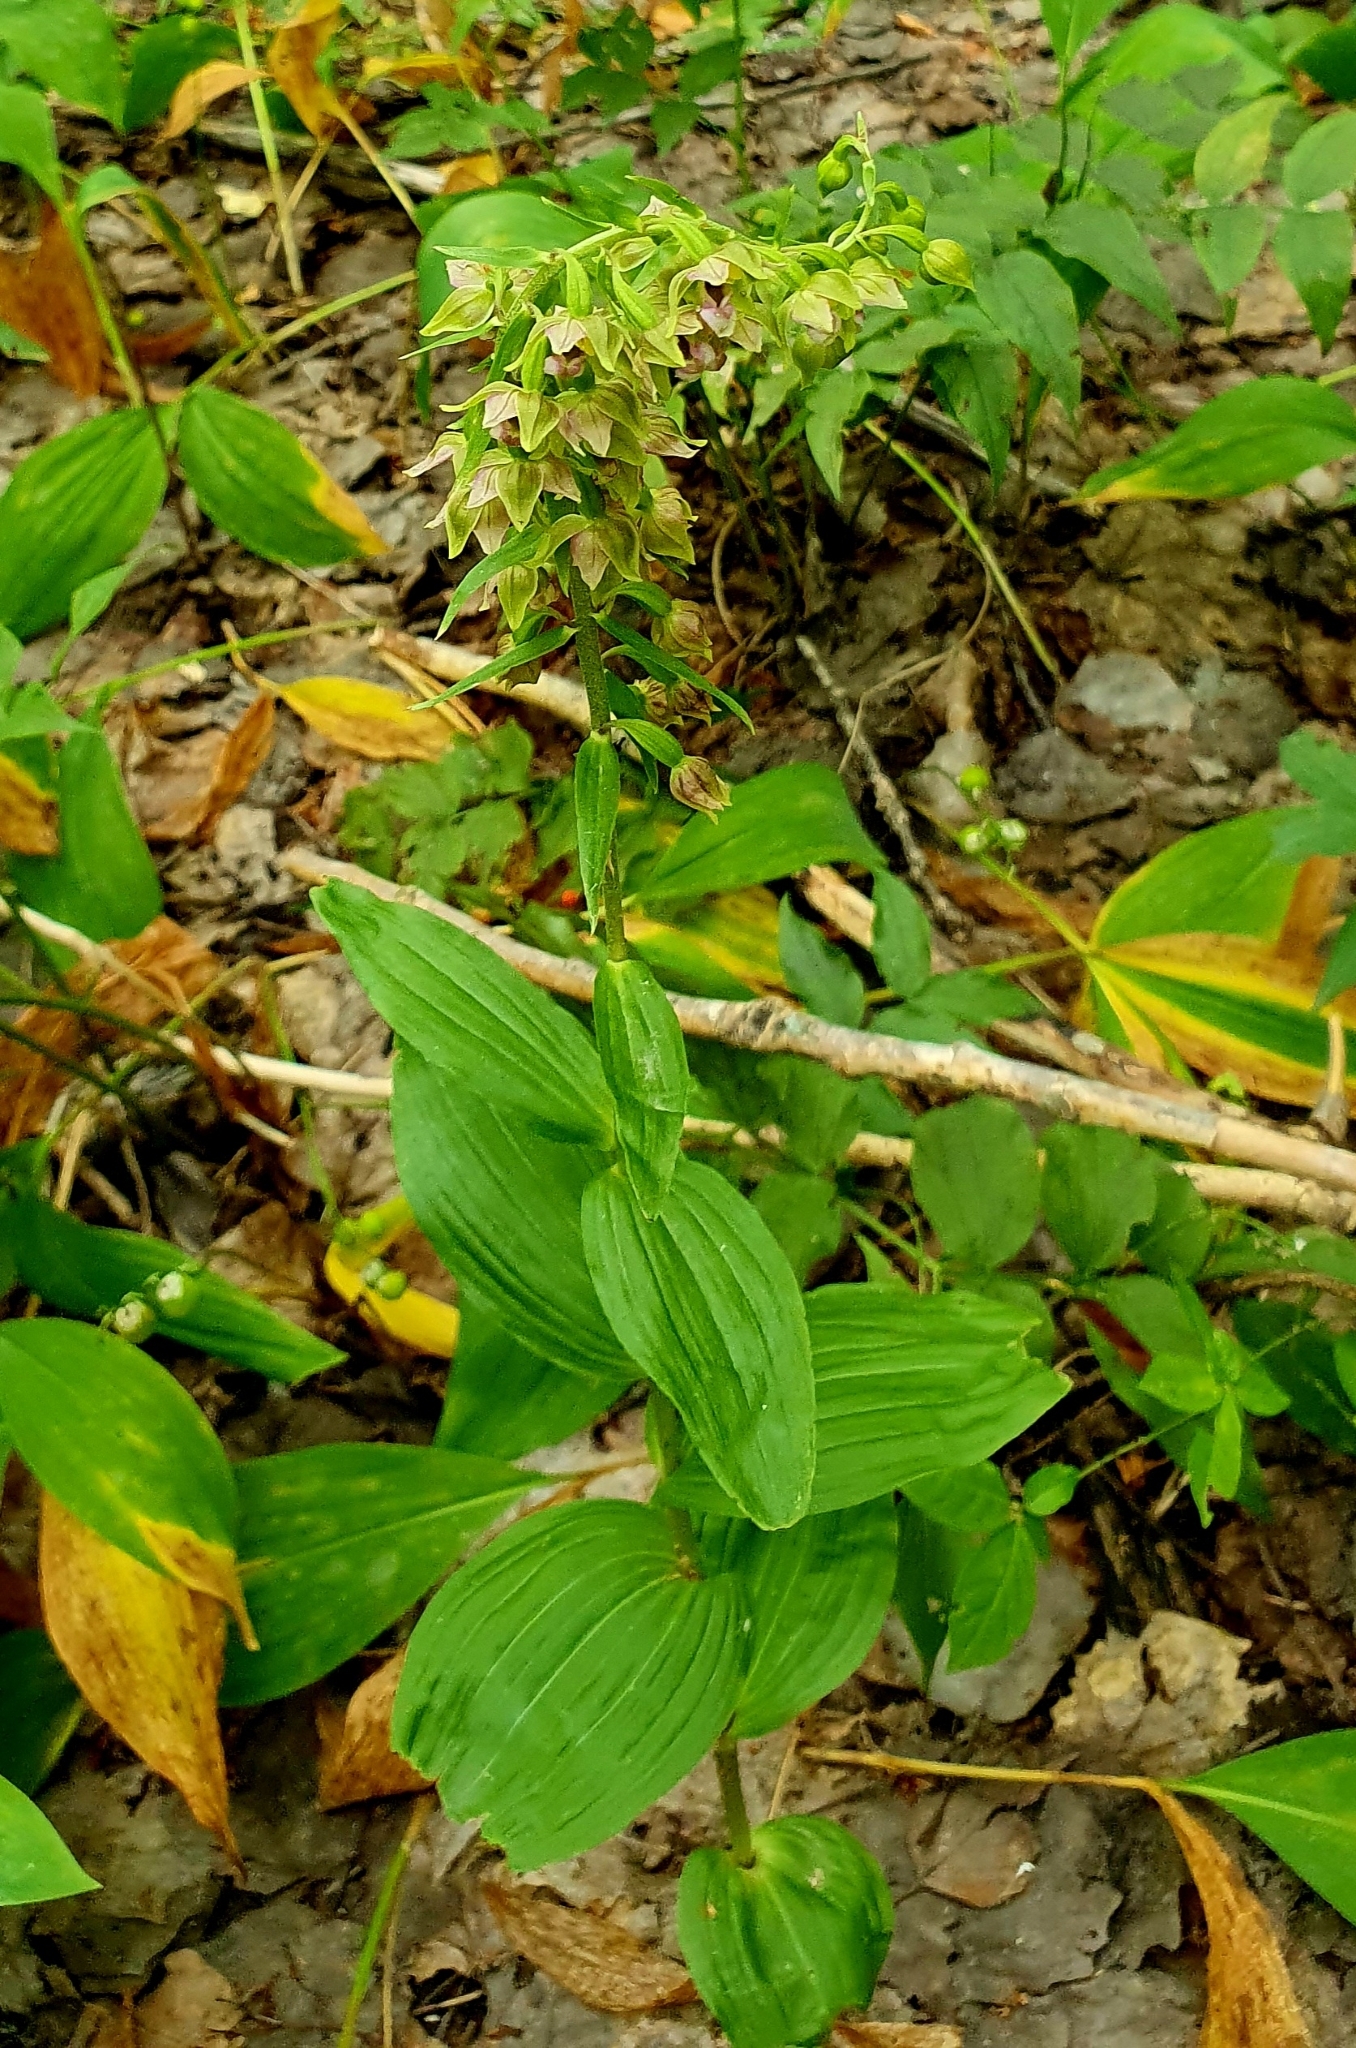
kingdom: Plantae
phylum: Tracheophyta
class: Liliopsida
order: Asparagales
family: Orchidaceae
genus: Epipactis
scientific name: Epipactis helleborine
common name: Broad-leaved helleborine
